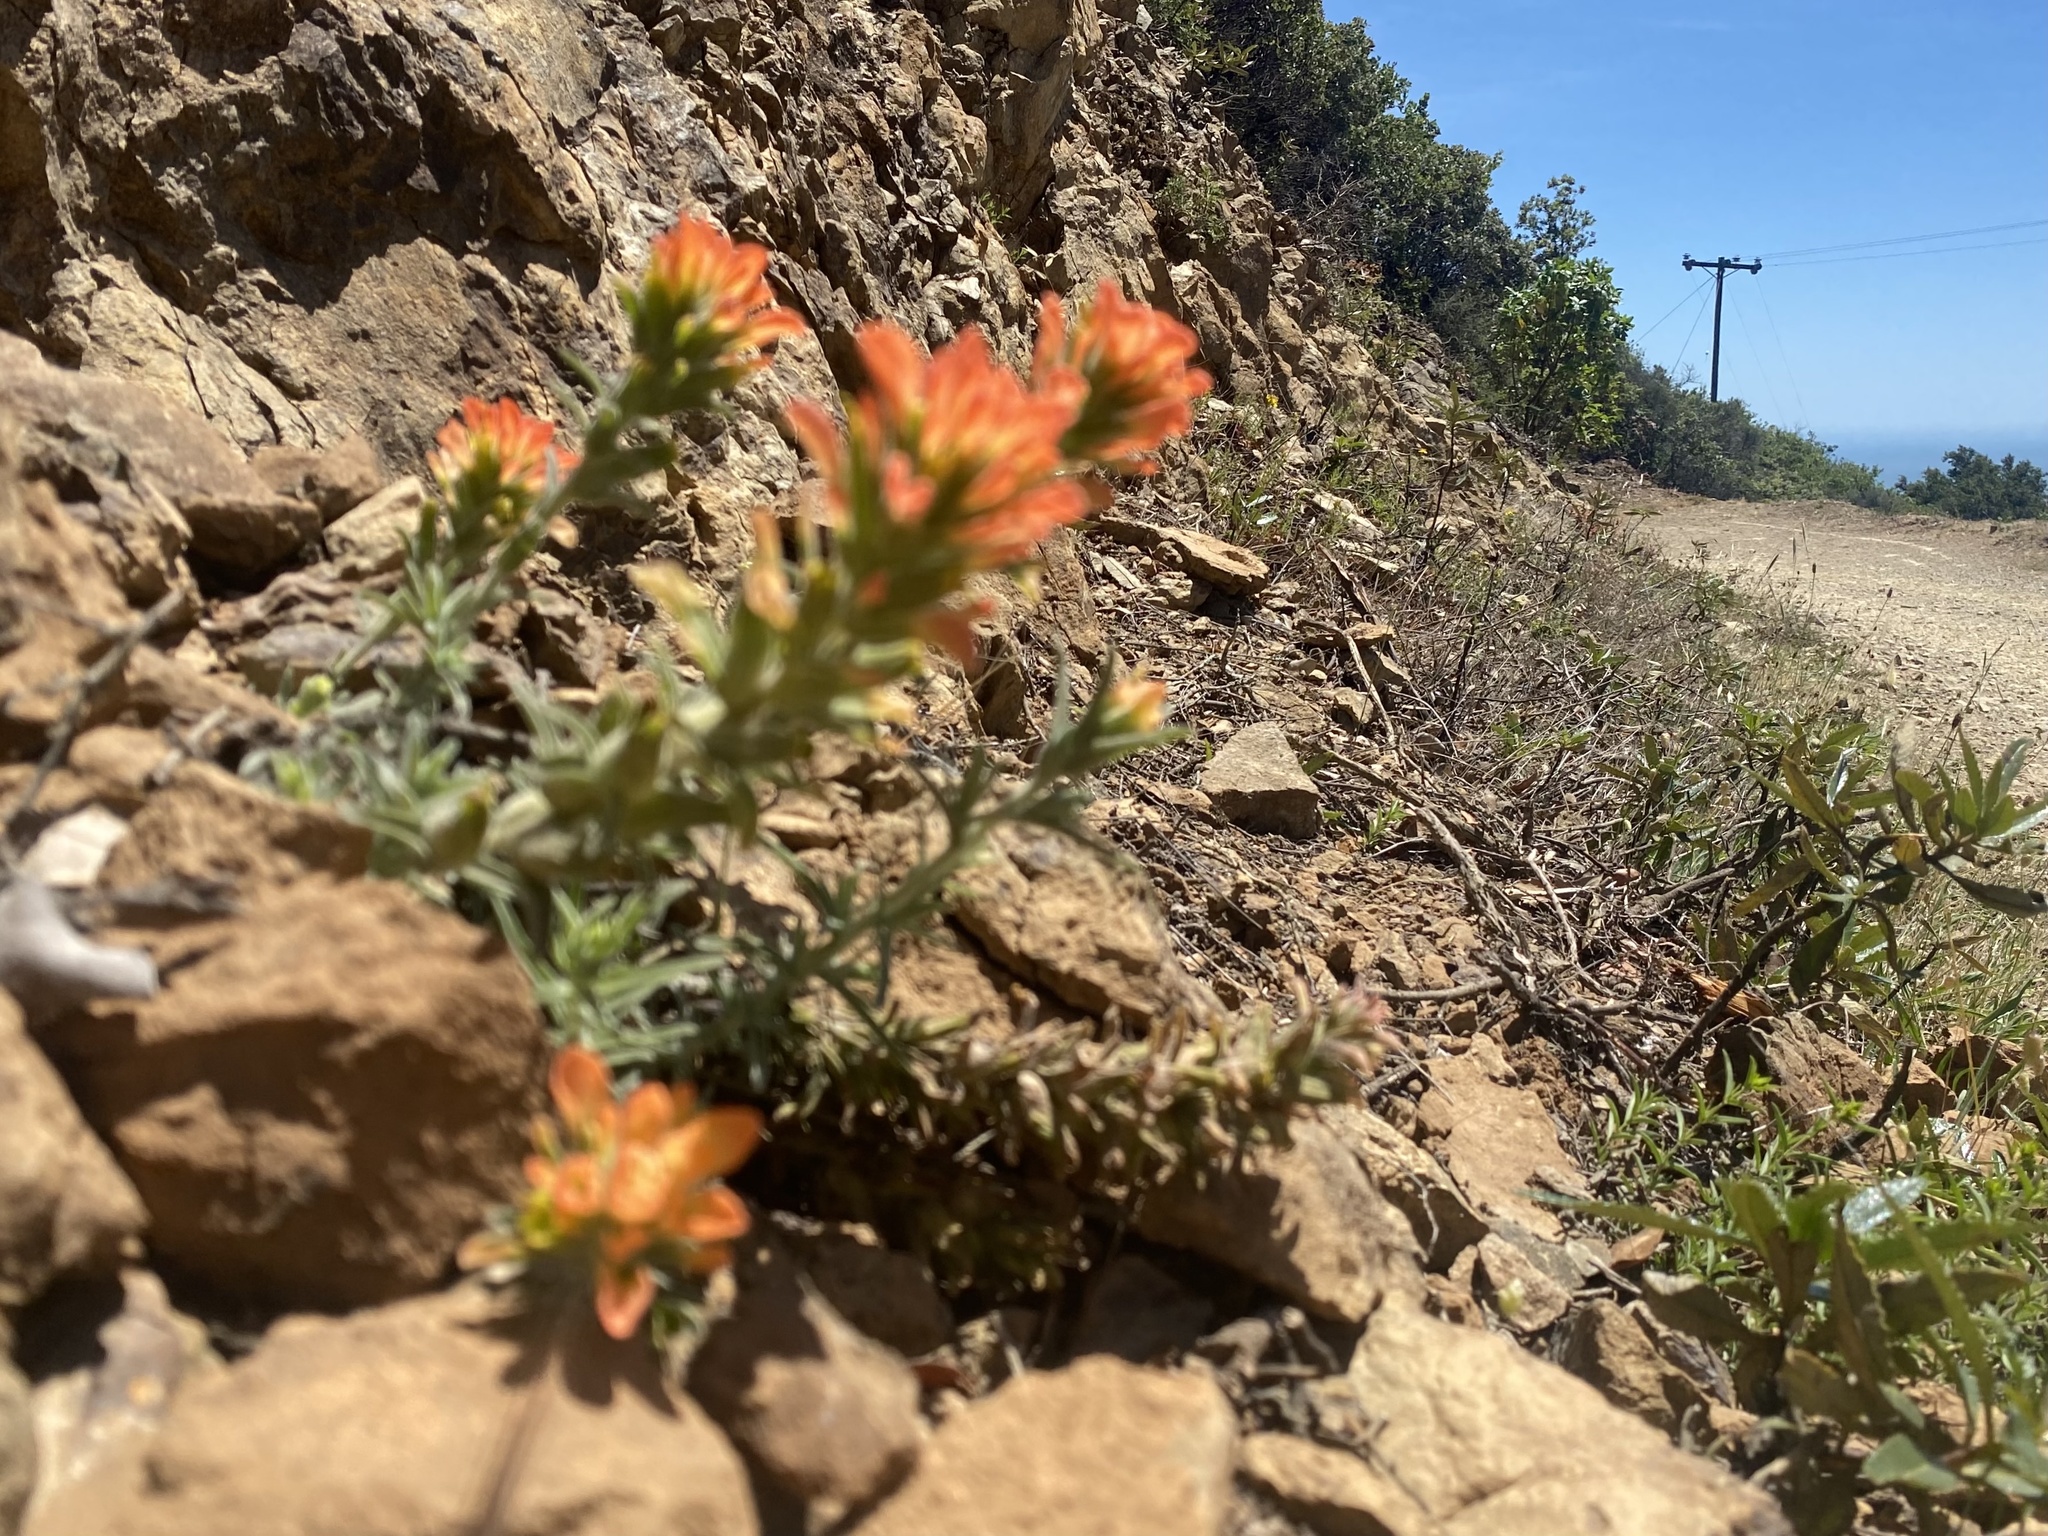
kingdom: Plantae
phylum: Tracheophyta
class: Magnoliopsida
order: Lamiales
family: Orobanchaceae
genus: Castilleja
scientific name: Castilleja foliolosa
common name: Woolly indian paintbrush
